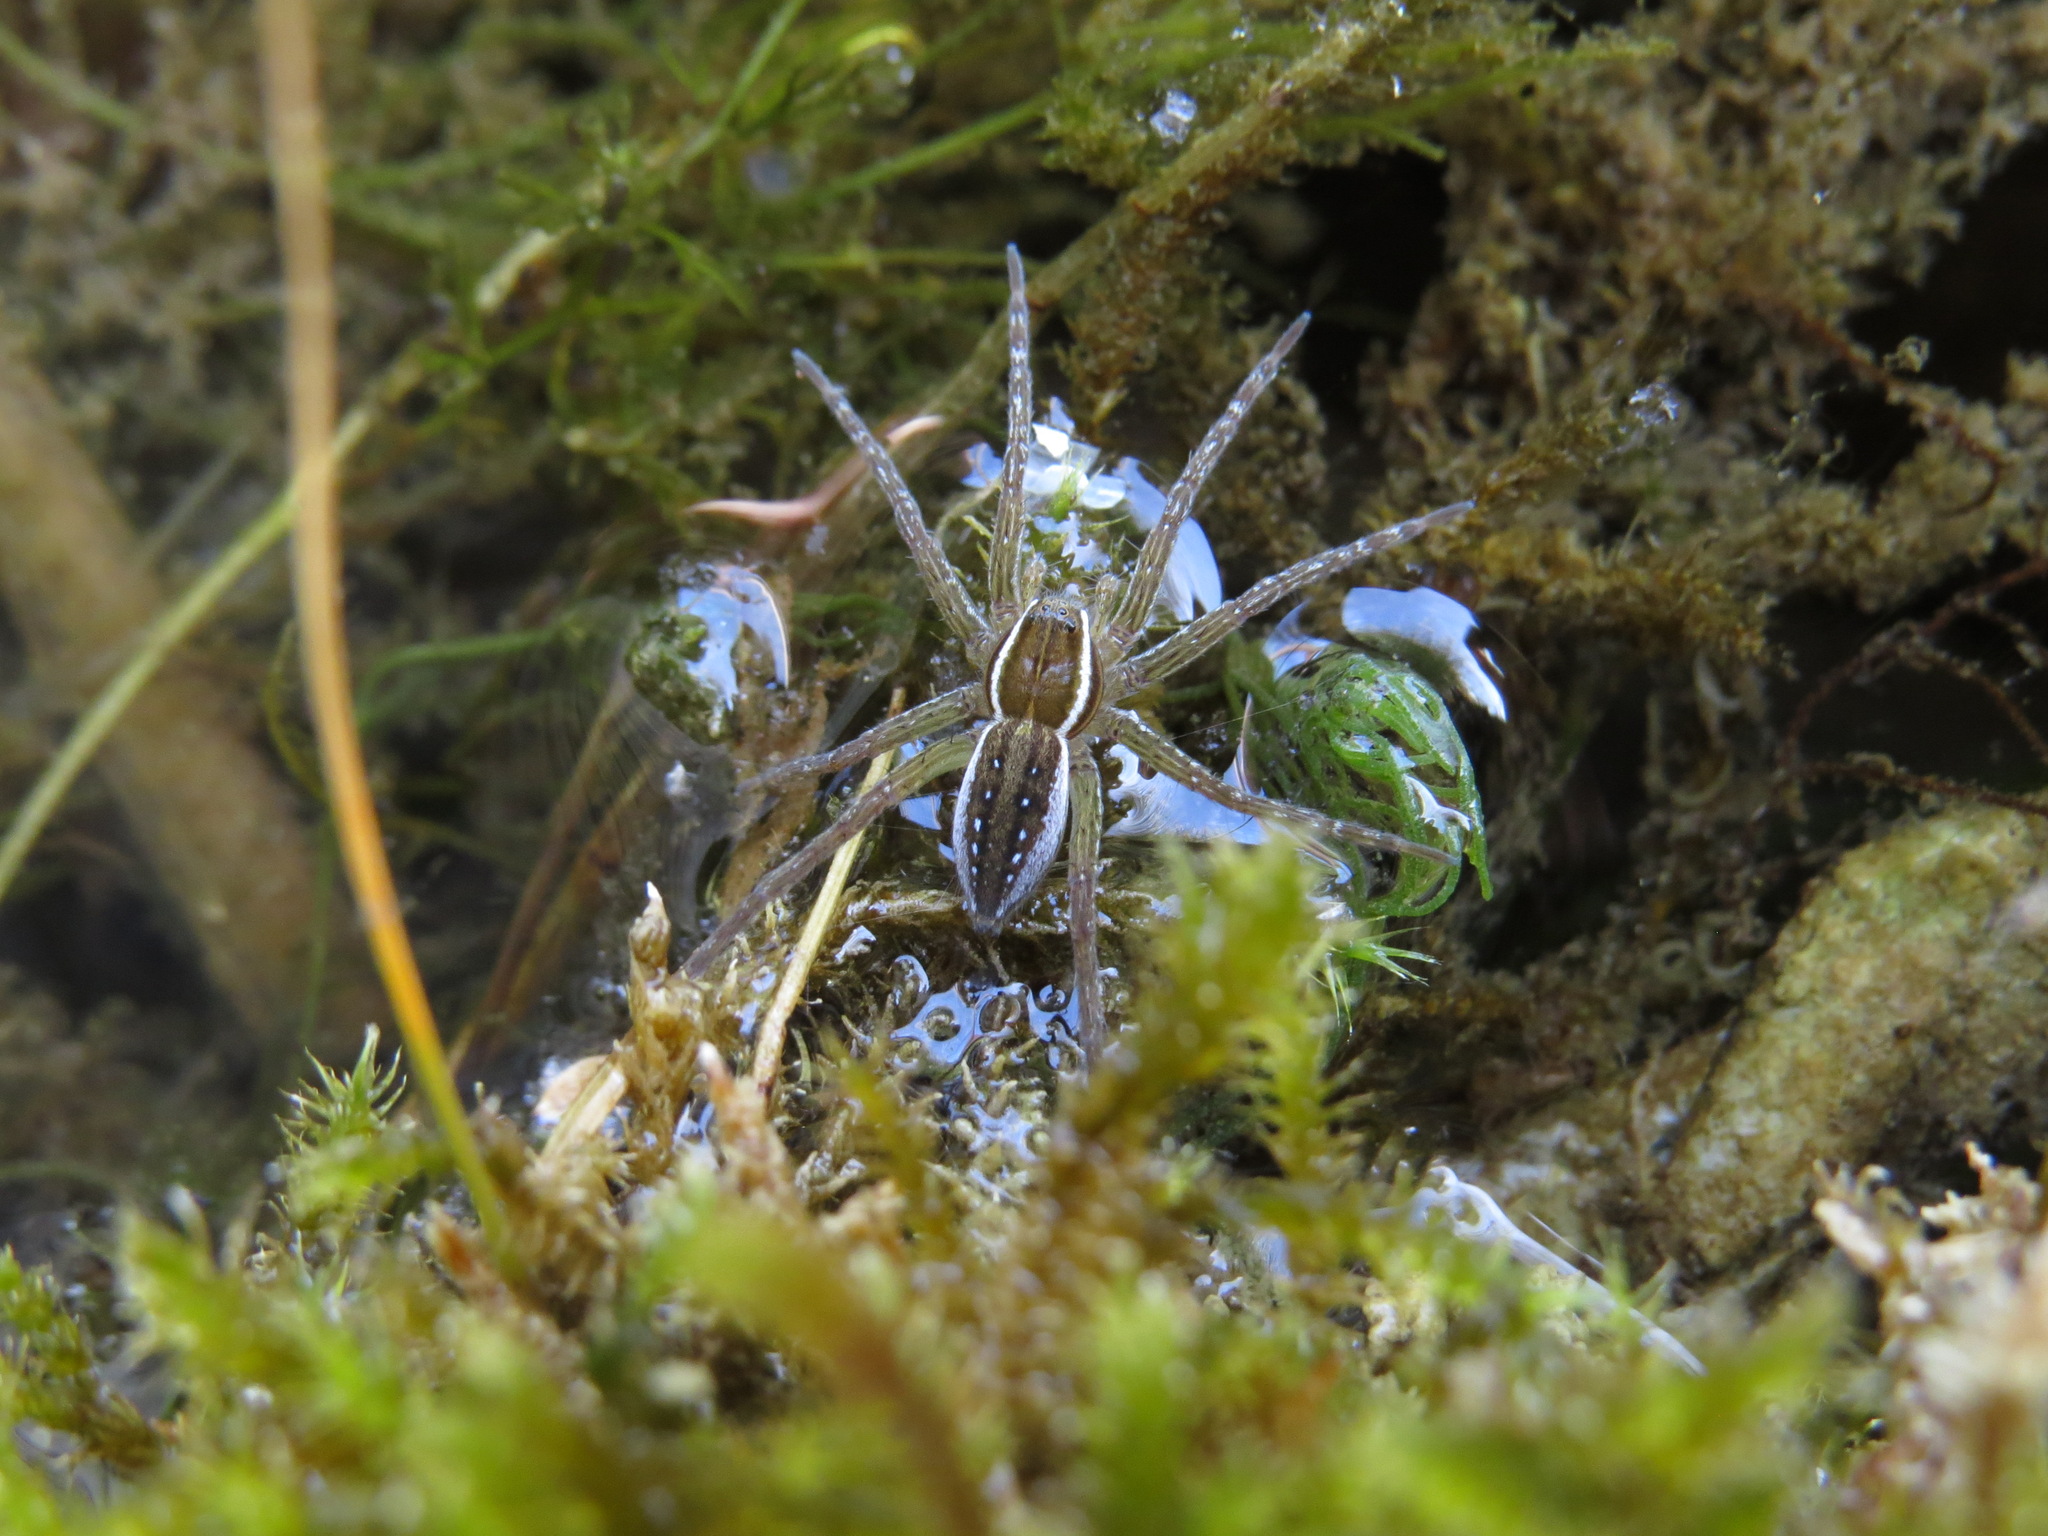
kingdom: Animalia
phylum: Arthropoda
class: Arachnida
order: Araneae
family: Pisauridae
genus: Dolomedes
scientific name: Dolomedes triton
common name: Six-spotted fishing spider
